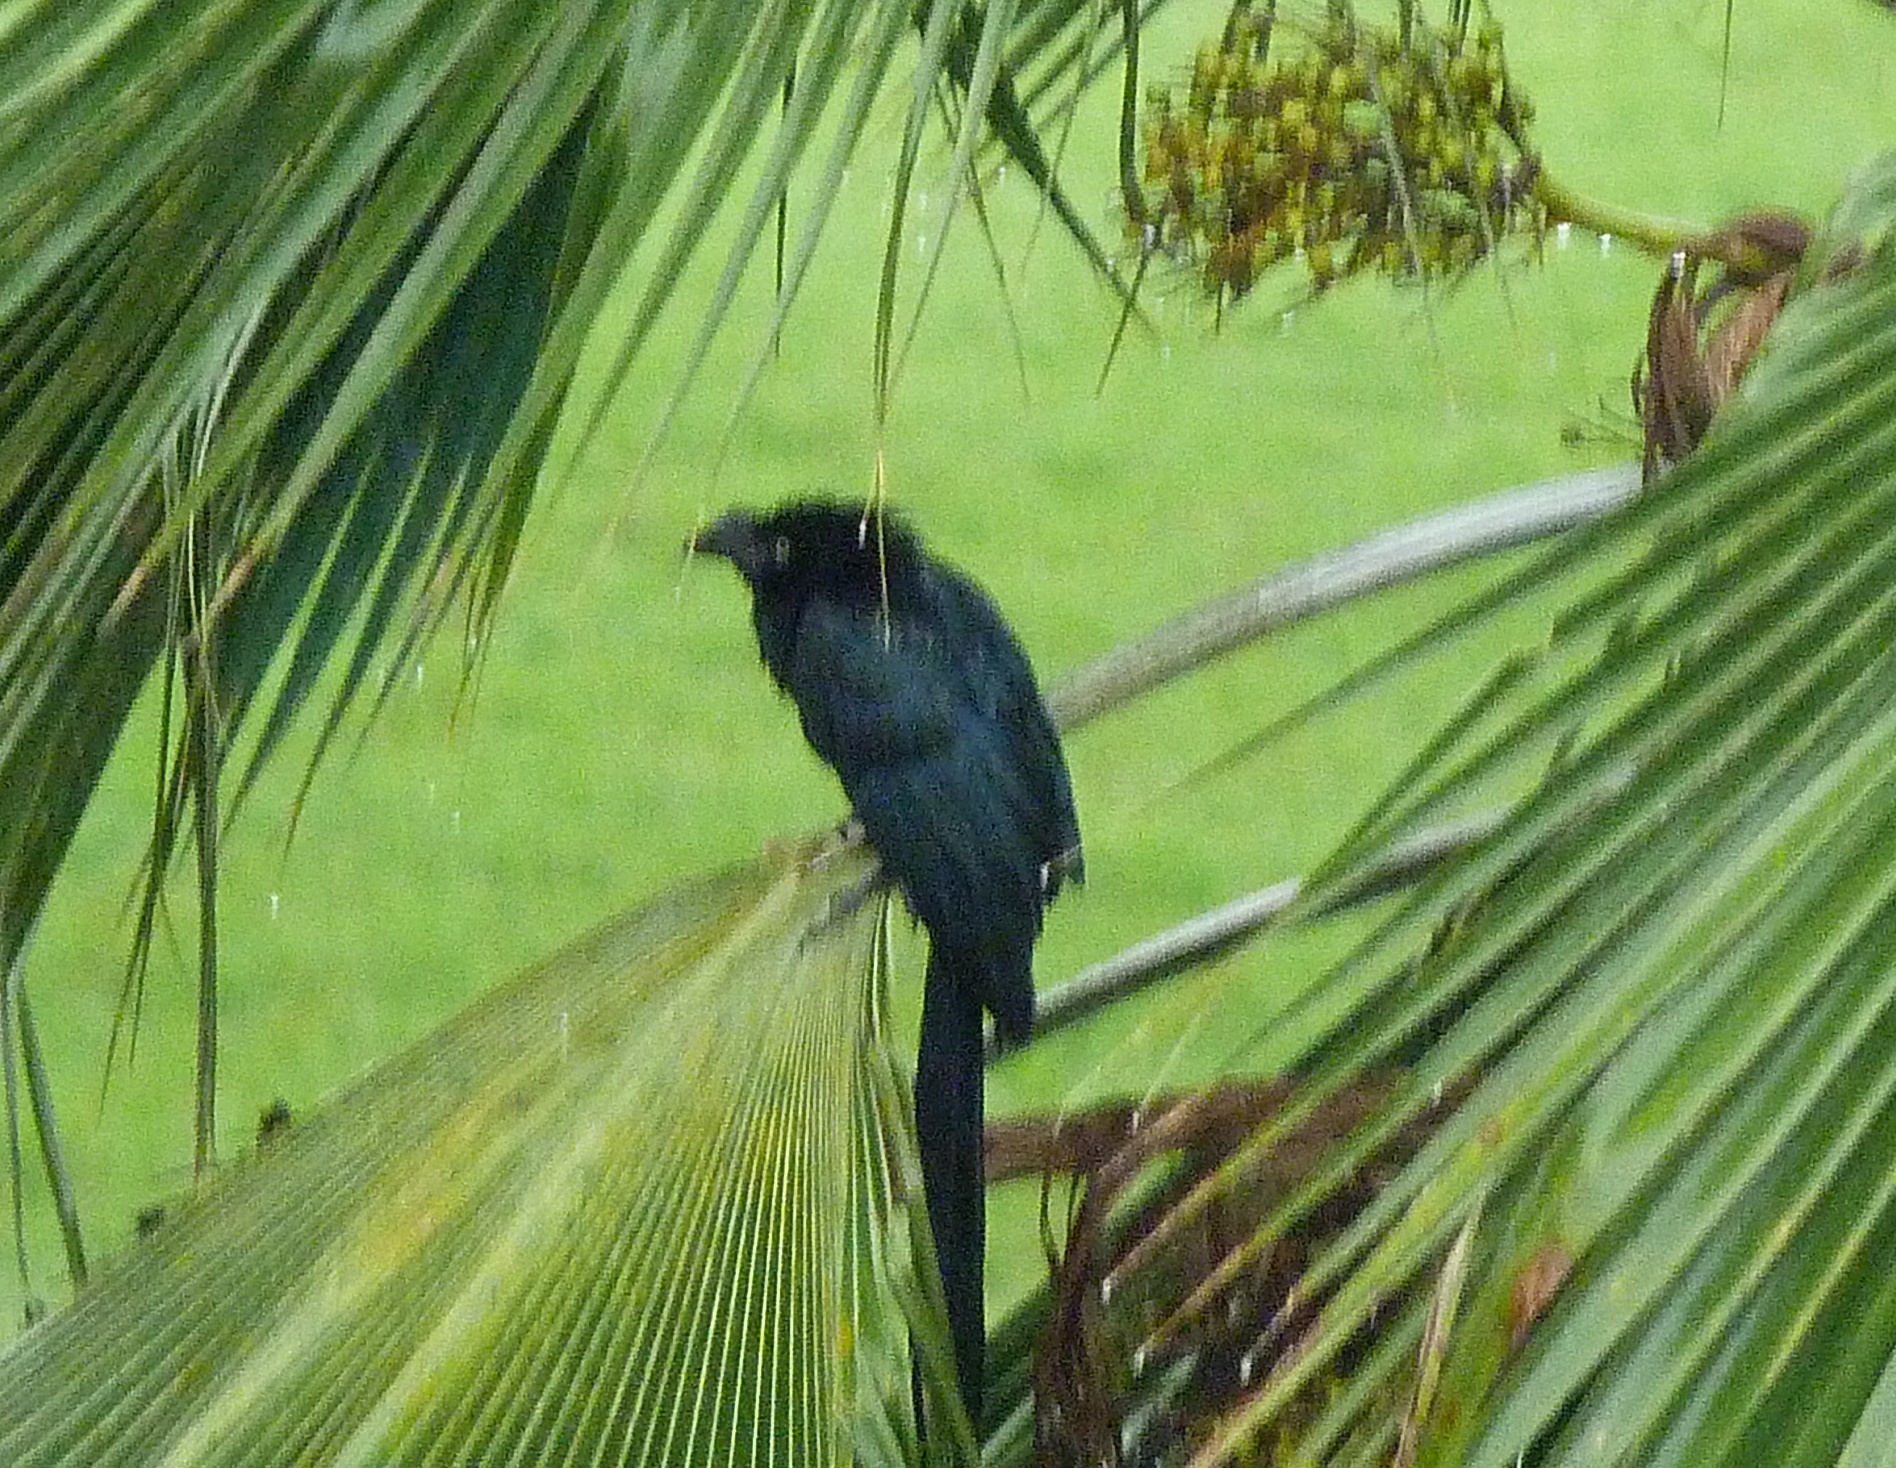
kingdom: Animalia
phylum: Chordata
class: Aves
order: Cuculiformes
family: Cuculidae
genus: Crotophaga
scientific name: Crotophaga major
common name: Greater ani
